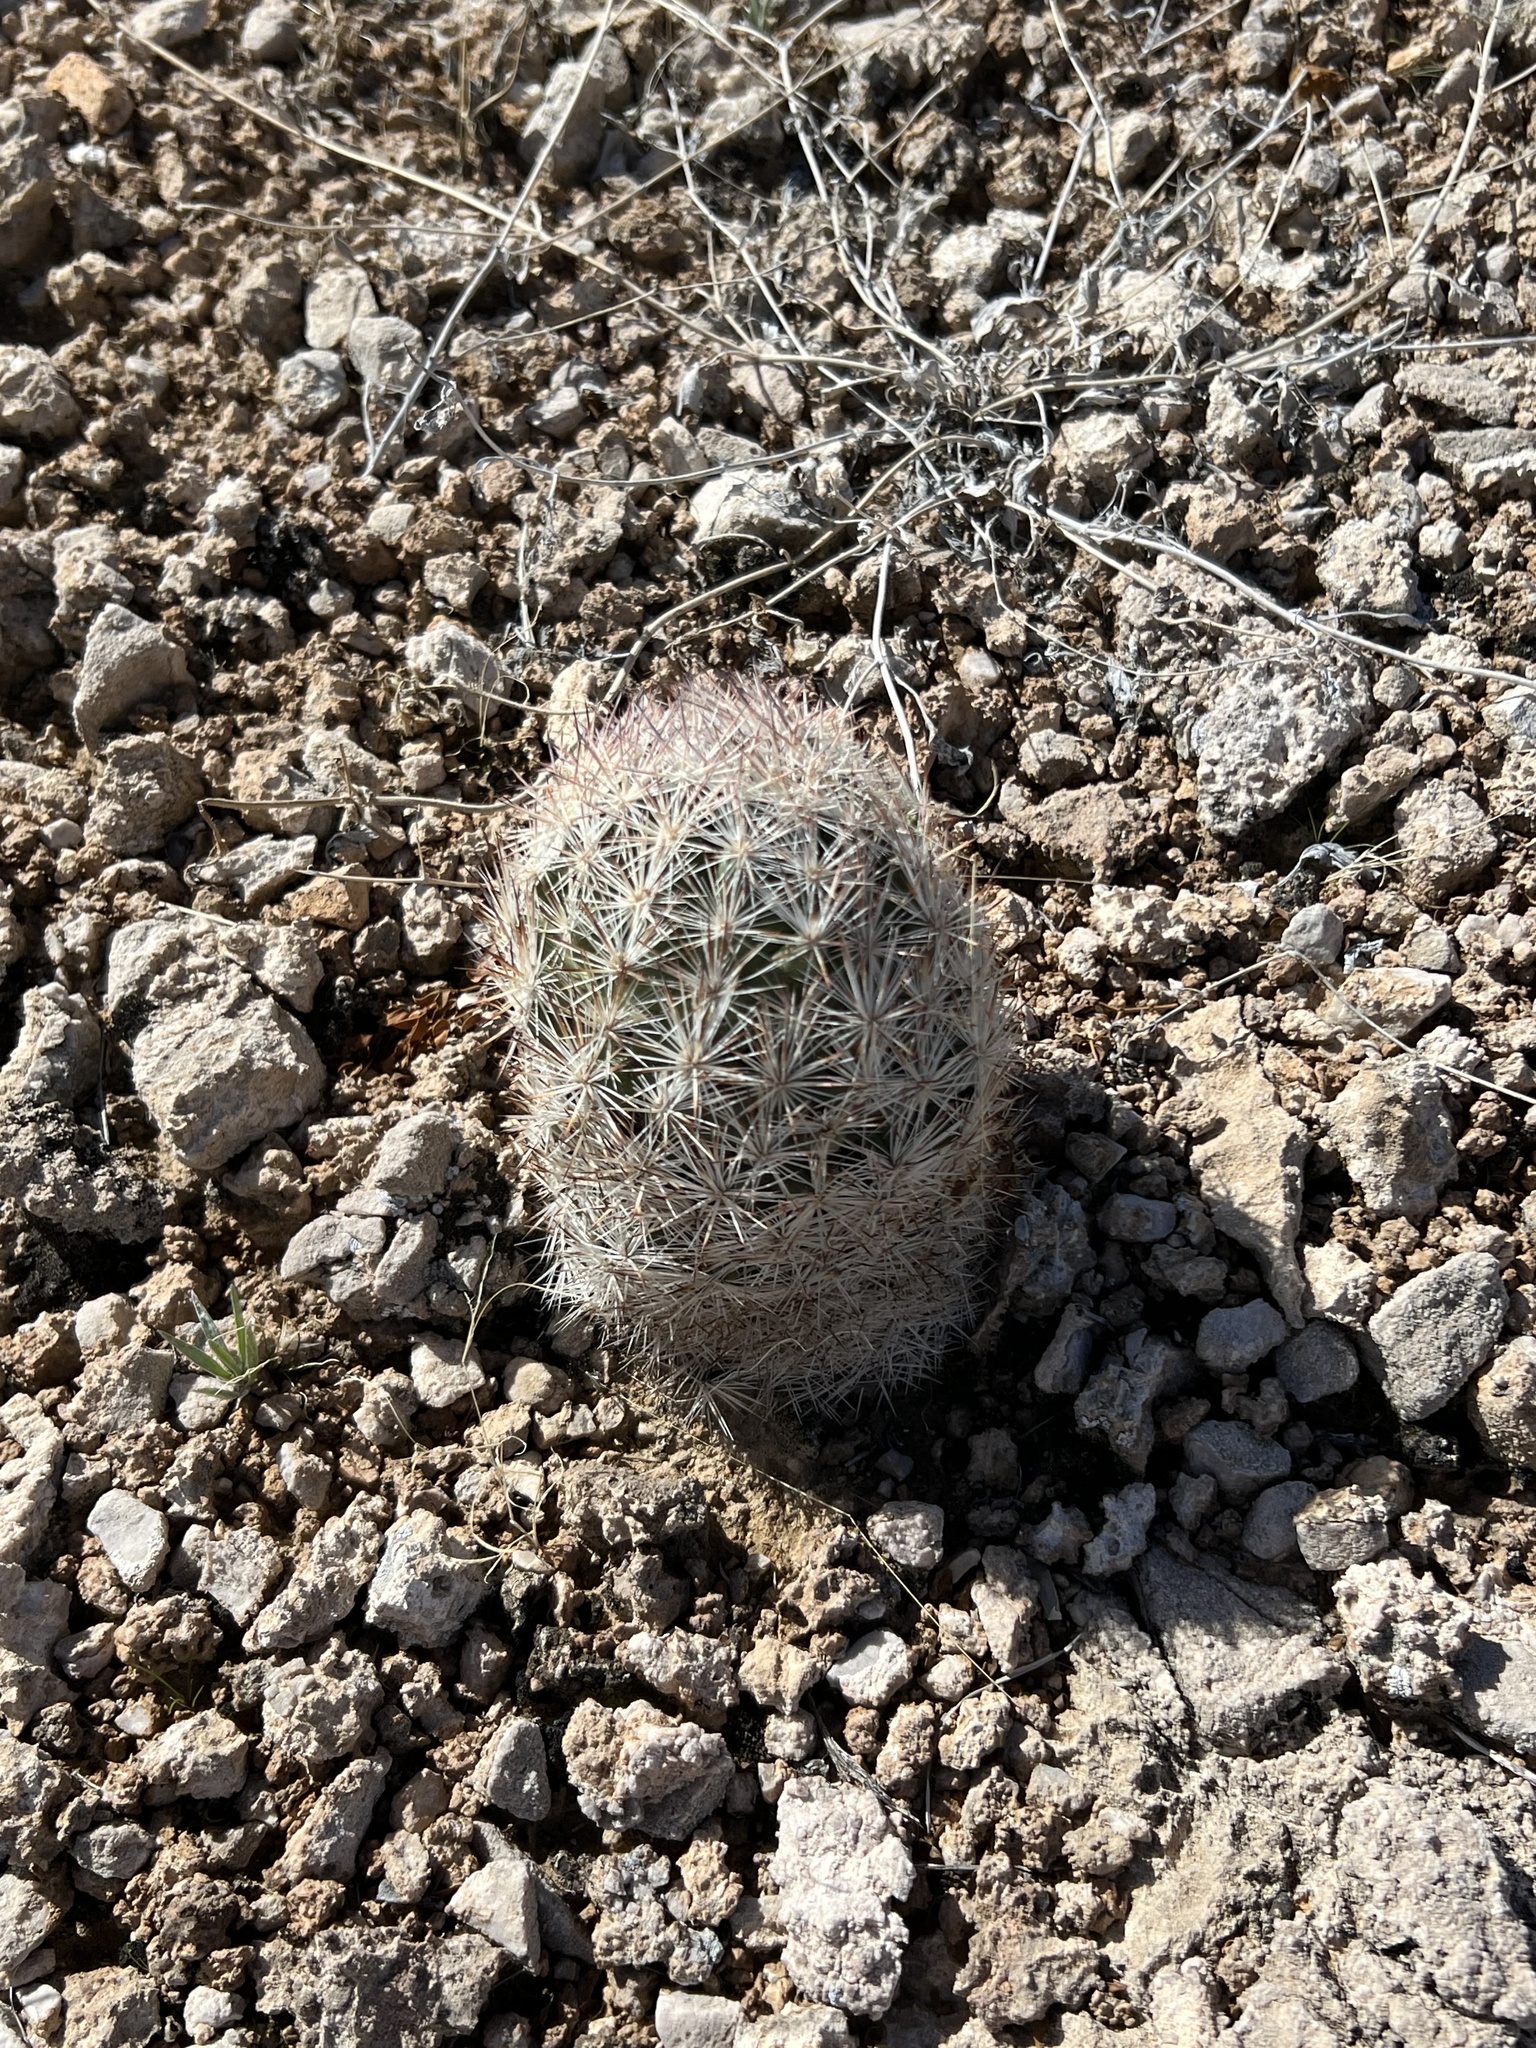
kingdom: Plantae
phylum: Tracheophyta
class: Magnoliopsida
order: Caryophyllales
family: Cactaceae
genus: Pelecyphora
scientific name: Pelecyphora dasyacantha
